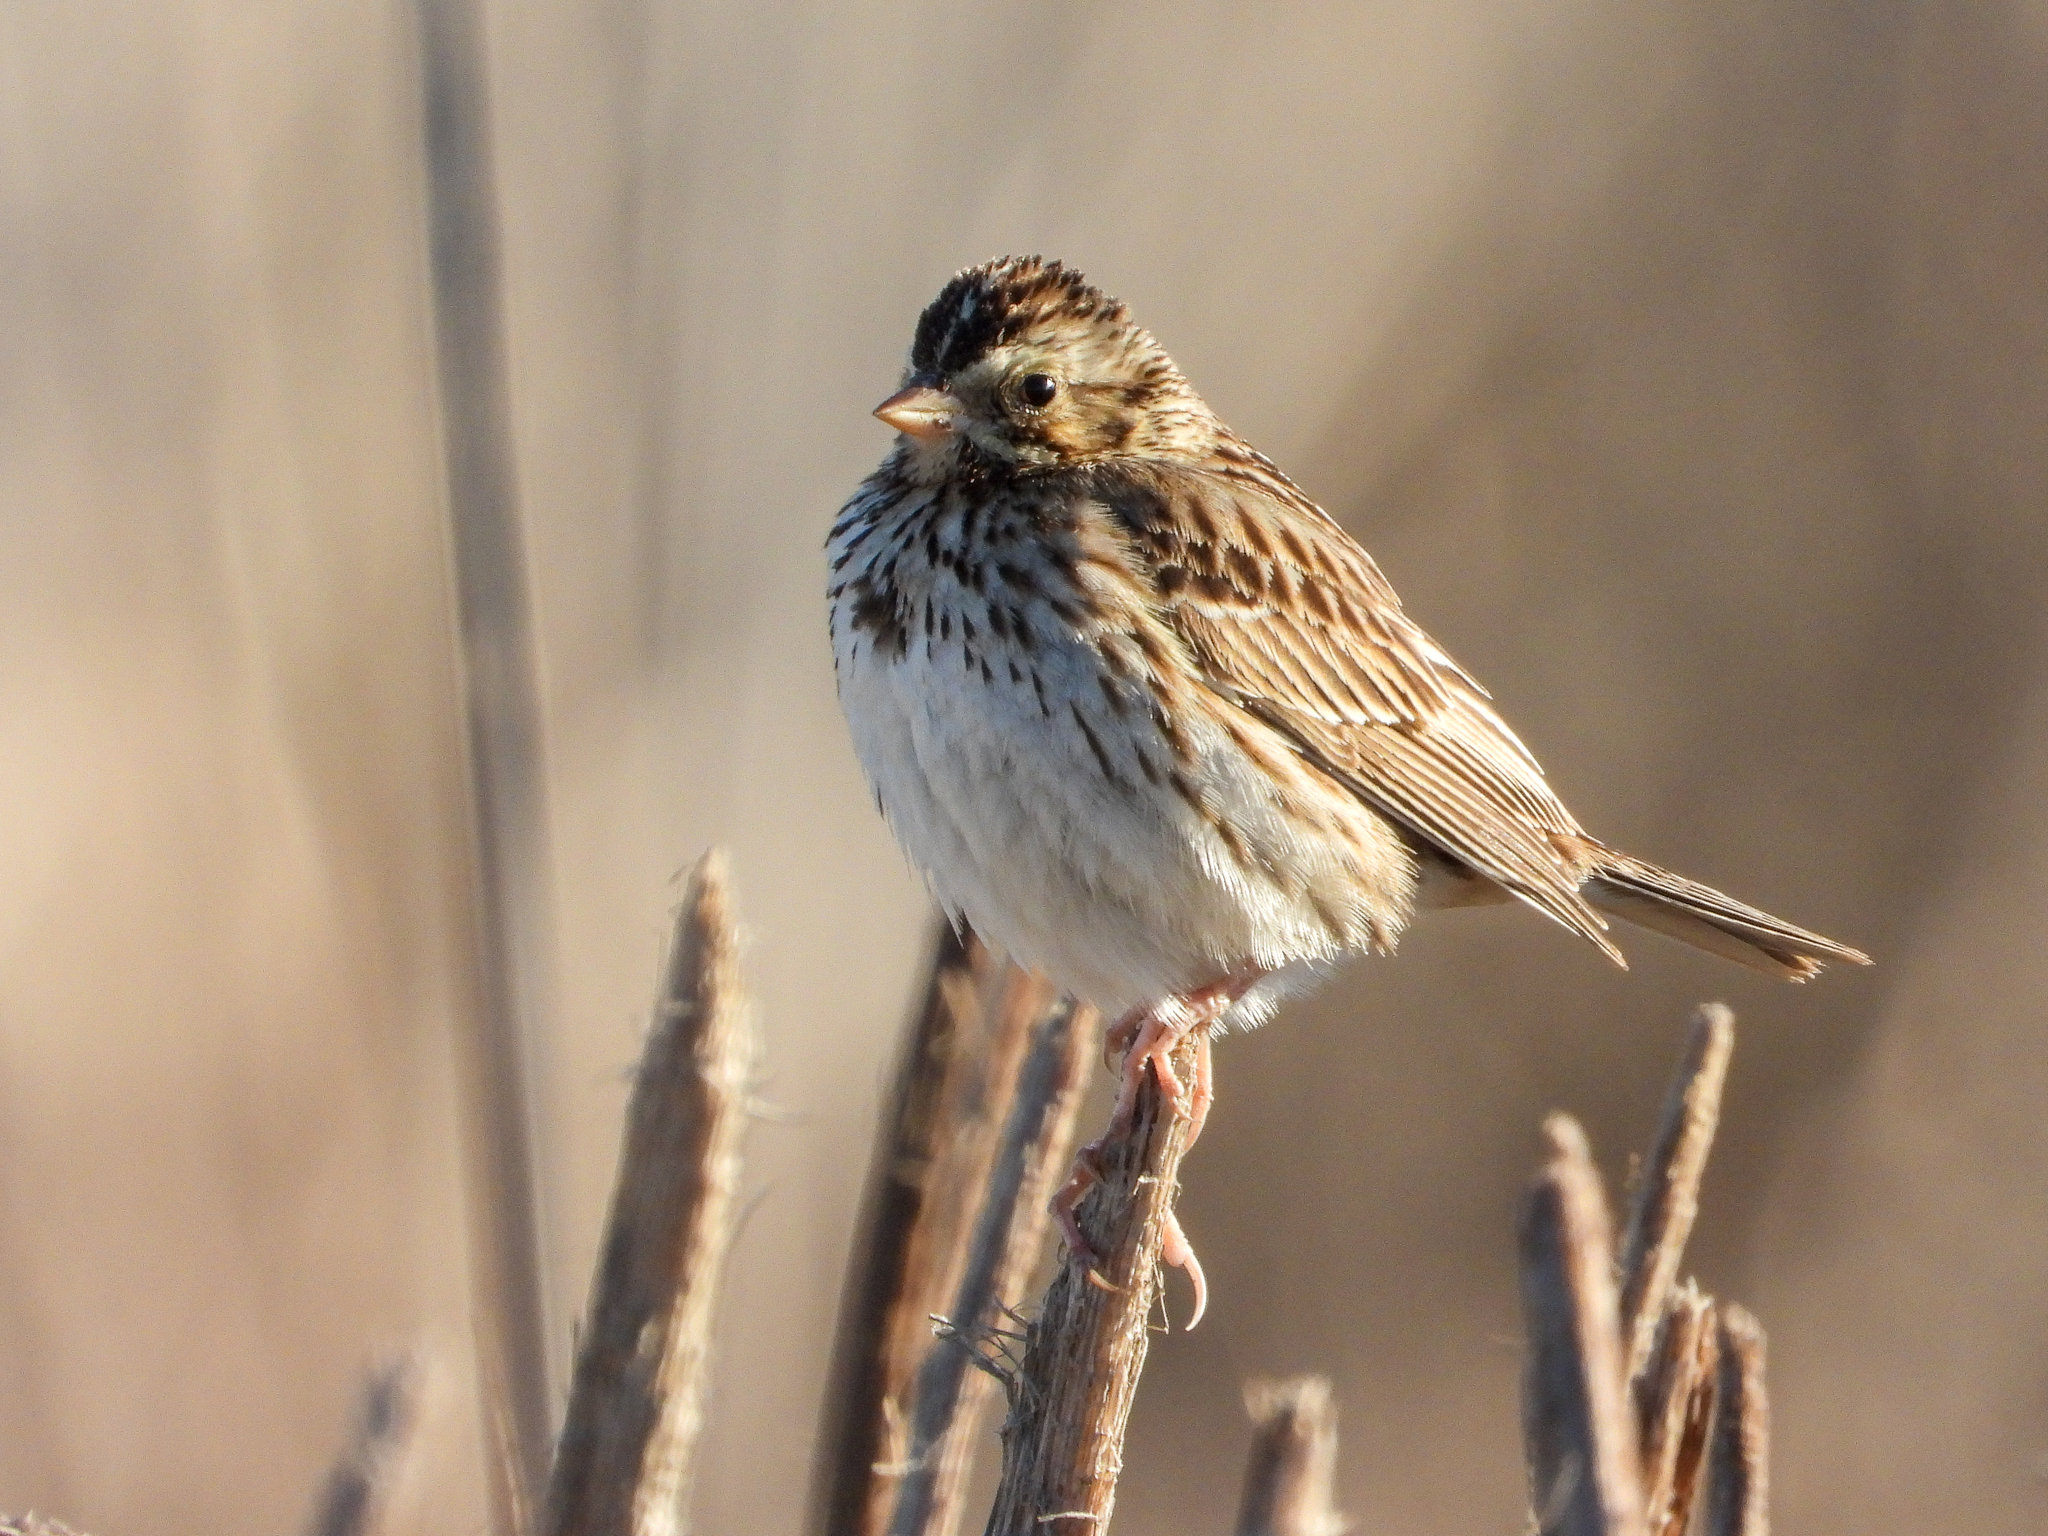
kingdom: Animalia
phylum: Chordata
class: Aves
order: Passeriformes
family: Passerellidae
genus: Passerculus
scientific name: Passerculus sandwichensis
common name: Savannah sparrow
